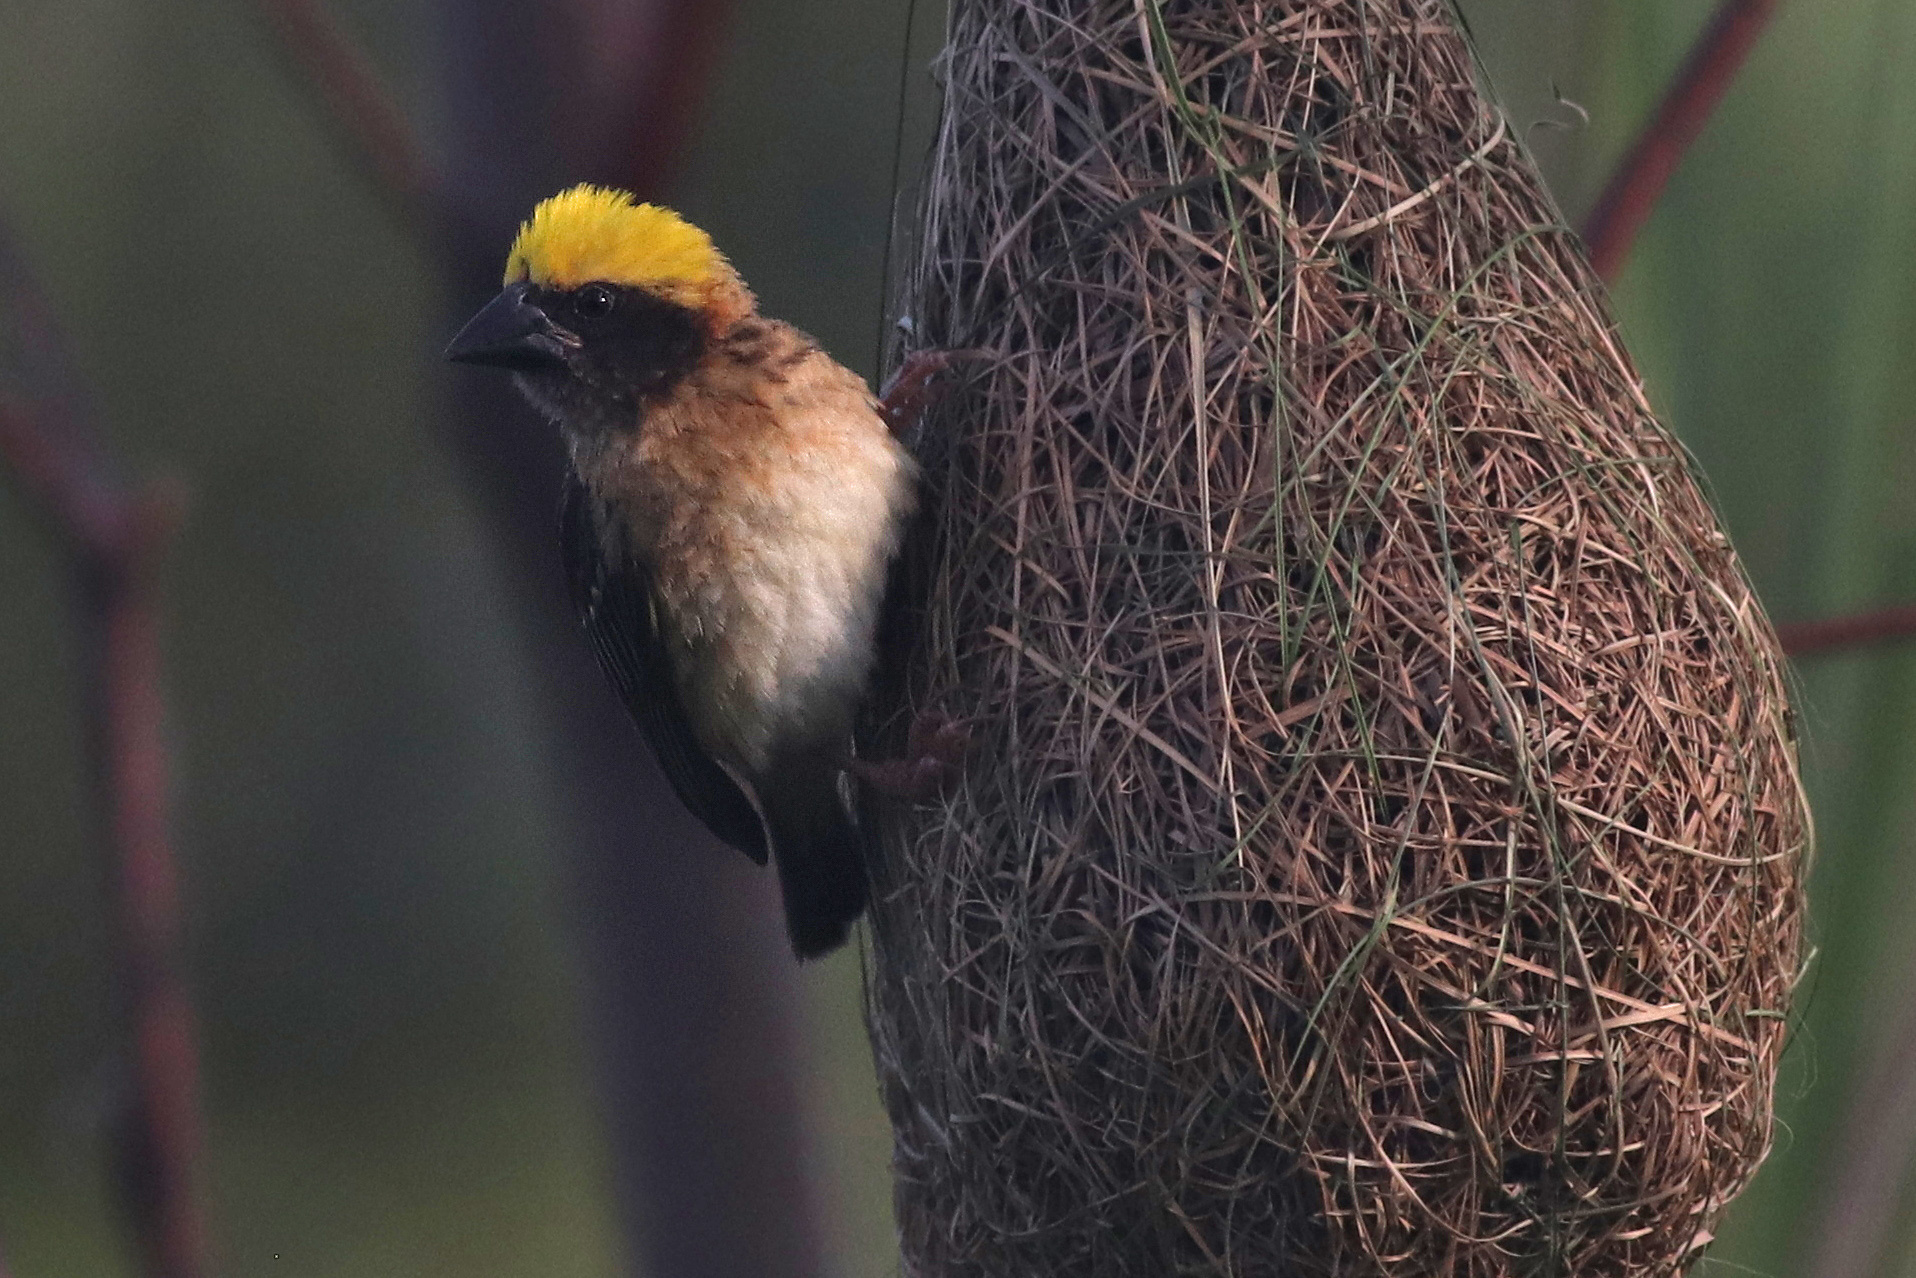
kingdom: Animalia
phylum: Chordata
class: Aves
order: Passeriformes
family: Ploceidae
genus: Ploceus
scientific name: Ploceus philippinus
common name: Baya weaver
